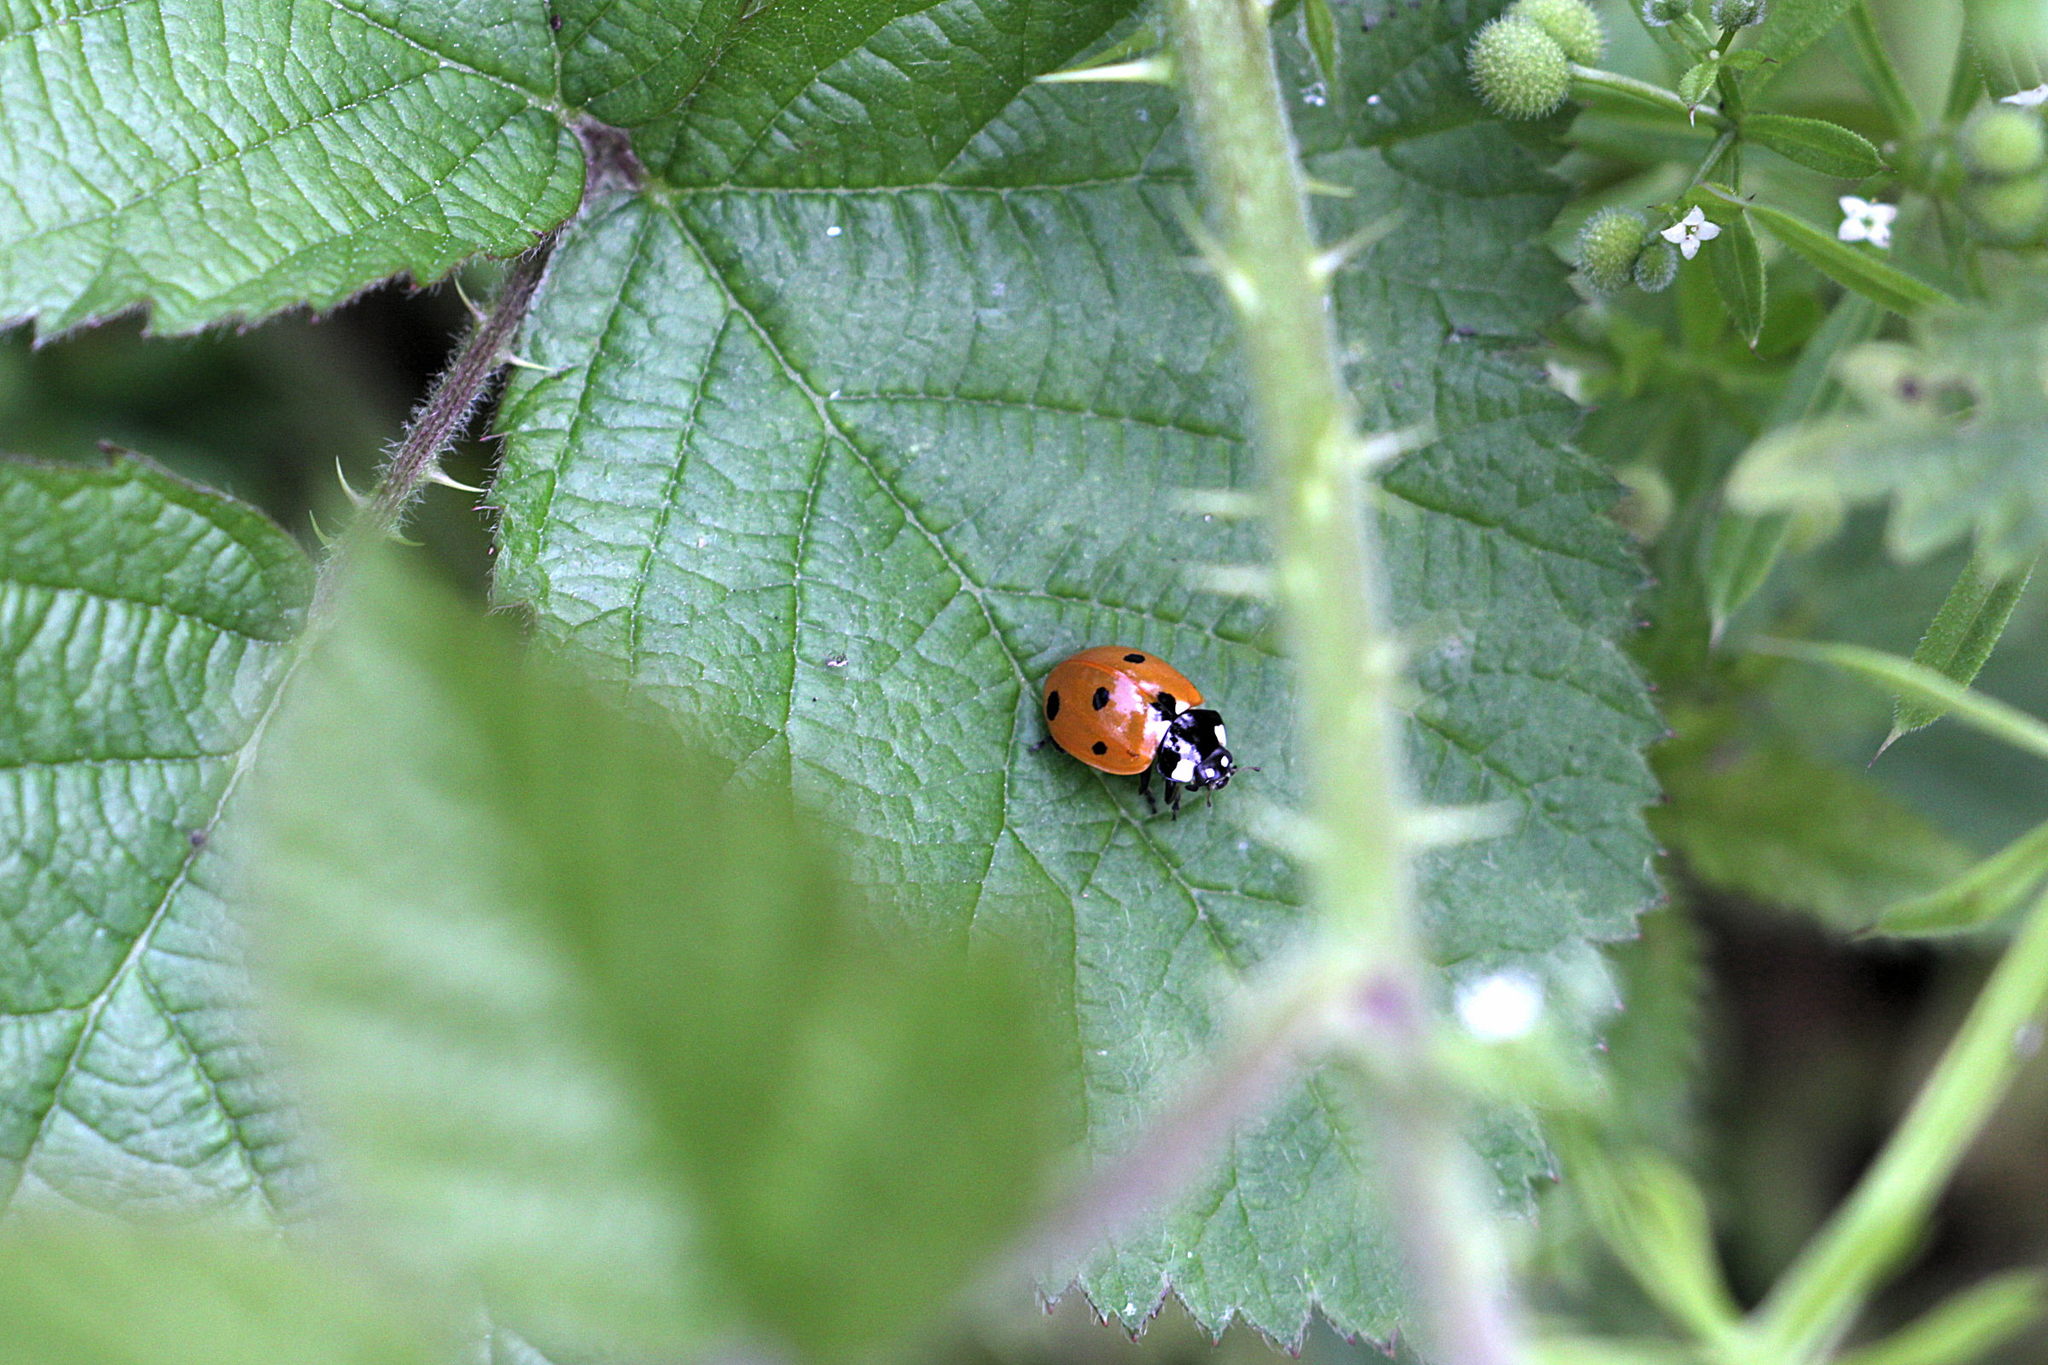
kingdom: Animalia
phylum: Arthropoda
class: Insecta
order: Coleoptera
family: Coccinellidae
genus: Coccinella
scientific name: Coccinella septempunctata
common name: Sevenspotted lady beetle
